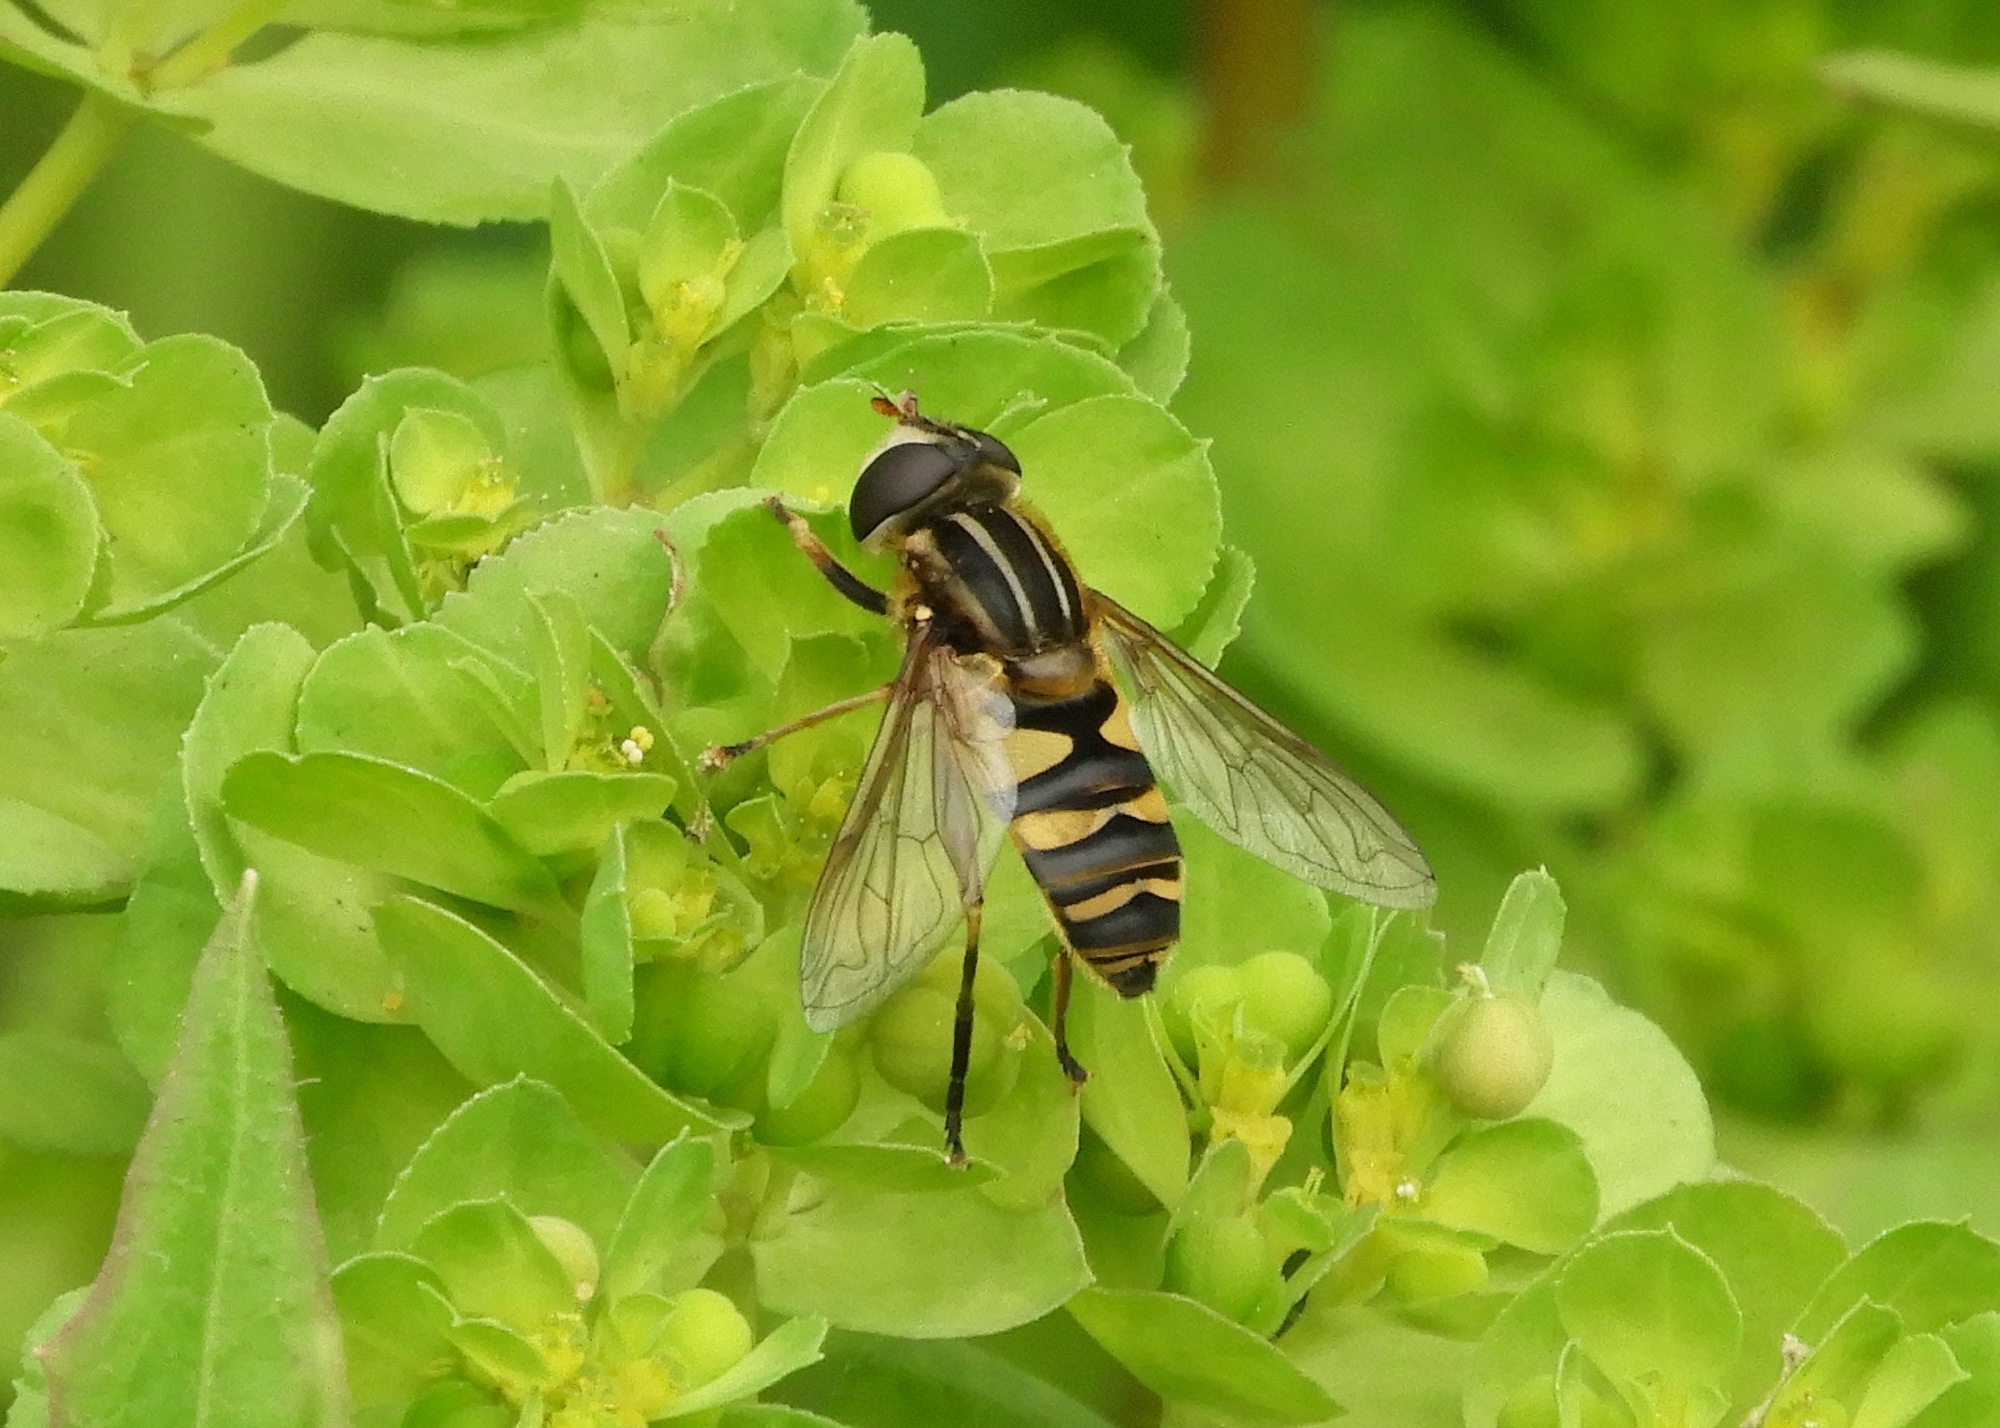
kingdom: Animalia
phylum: Arthropoda
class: Insecta
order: Diptera
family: Syrphidae
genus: Helophilus
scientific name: Helophilus fasciatus
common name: Narrow-headed marsh fly
